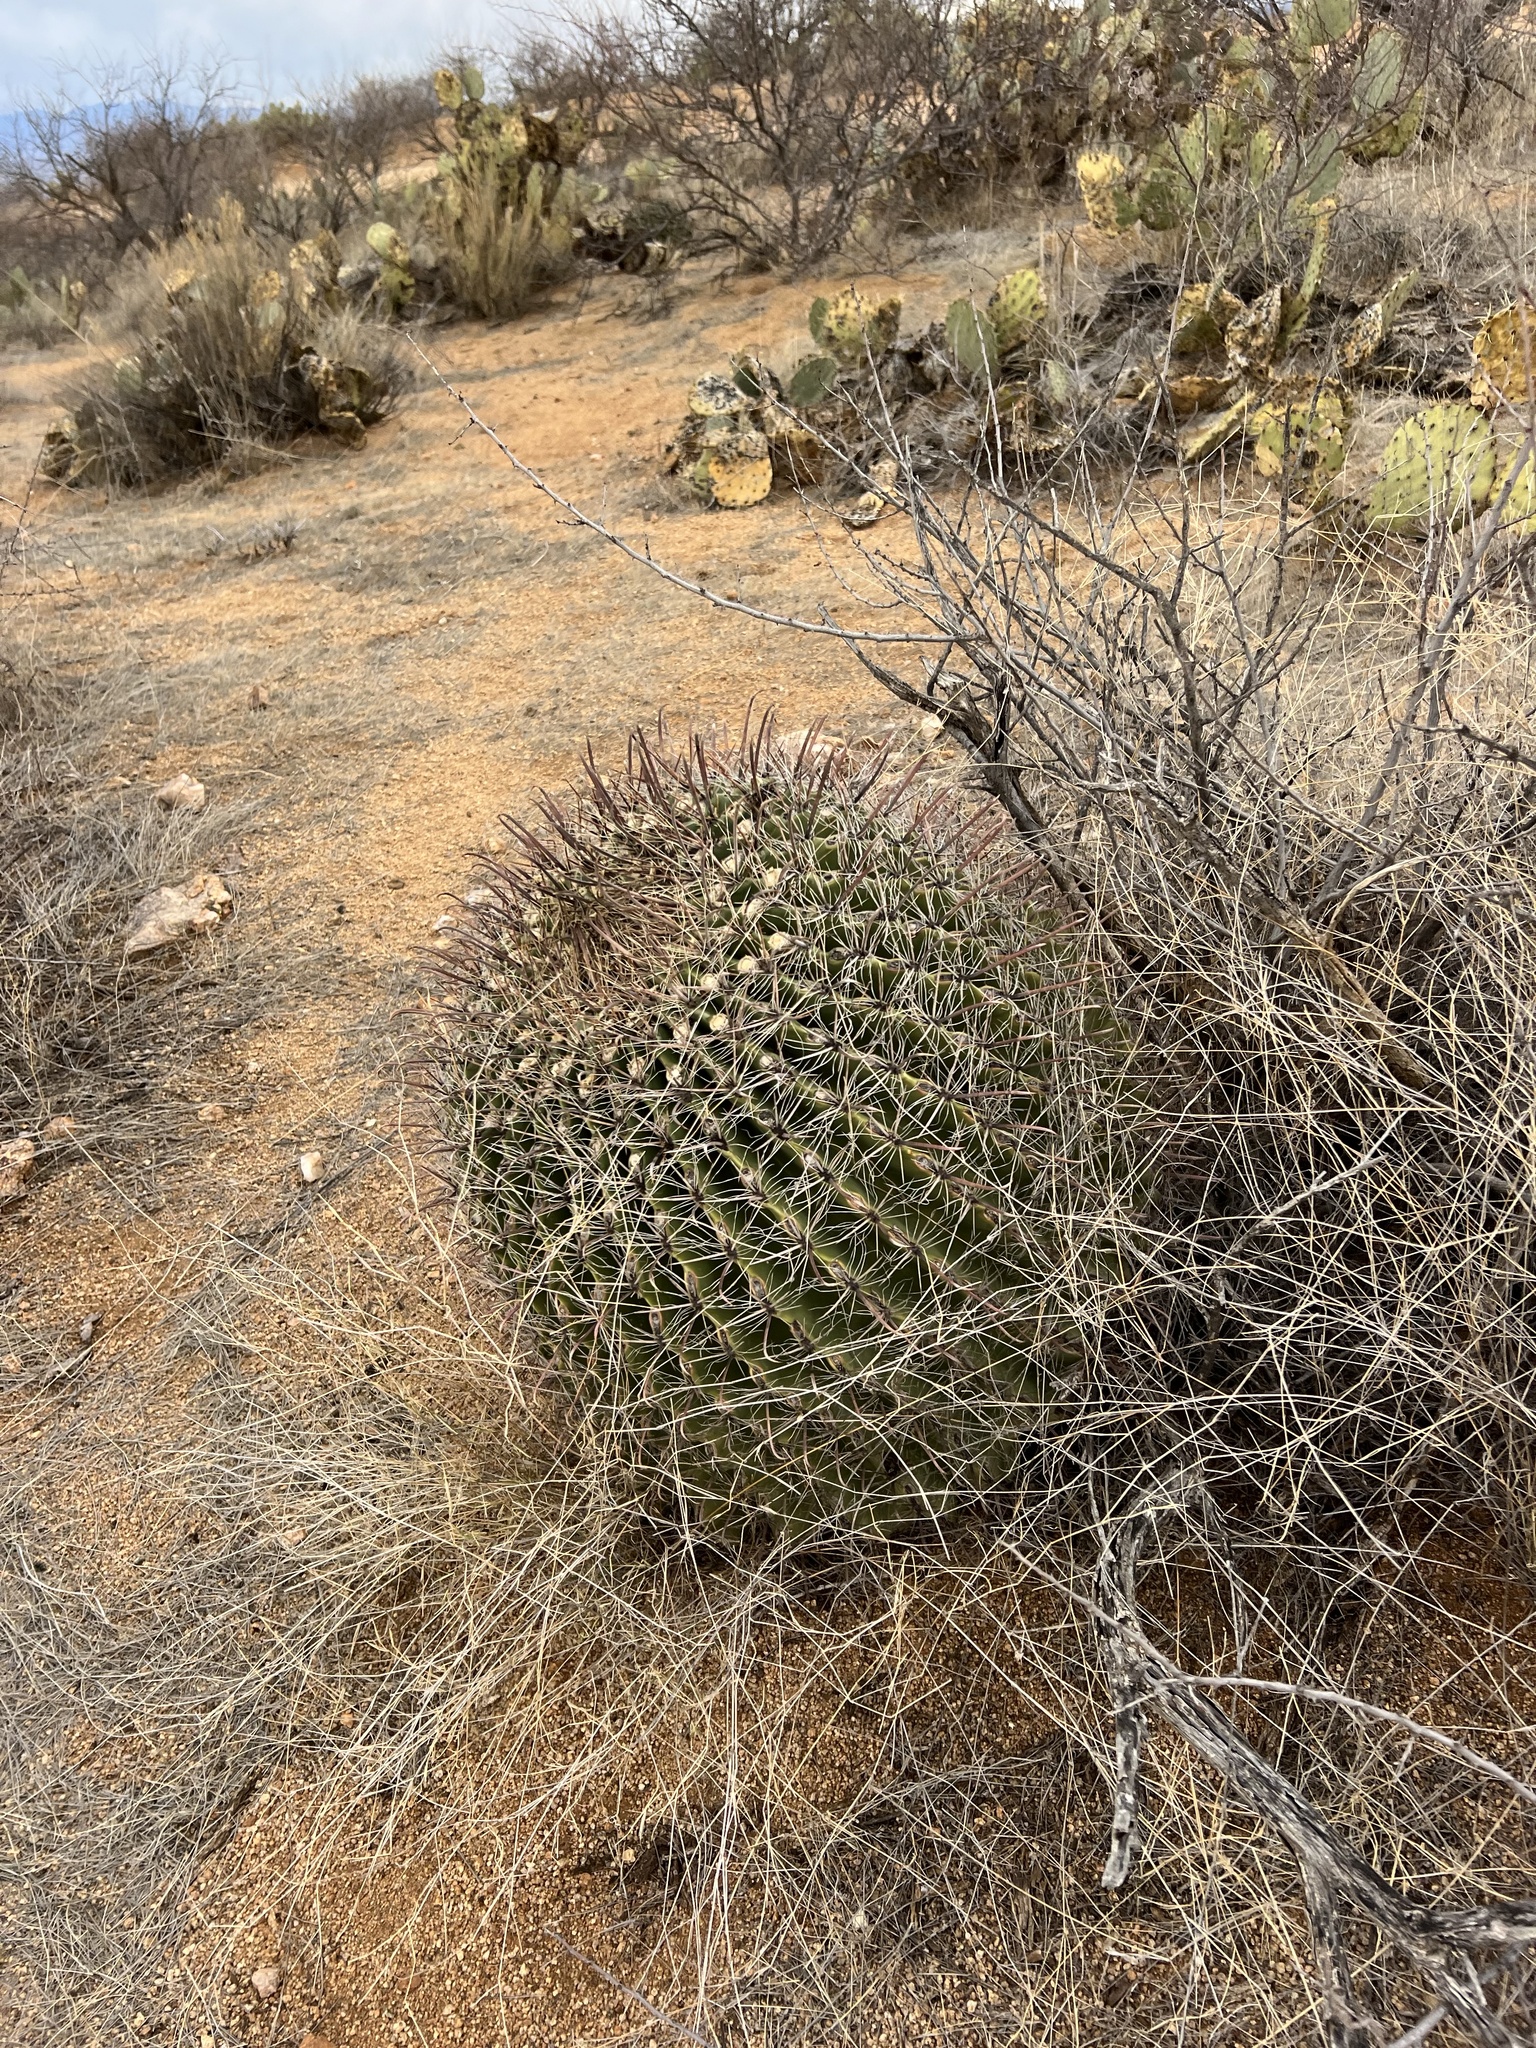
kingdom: Plantae
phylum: Tracheophyta
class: Magnoliopsida
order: Caryophyllales
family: Cactaceae
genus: Ferocactus
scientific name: Ferocactus wislizeni
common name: Candy barrel cactus
